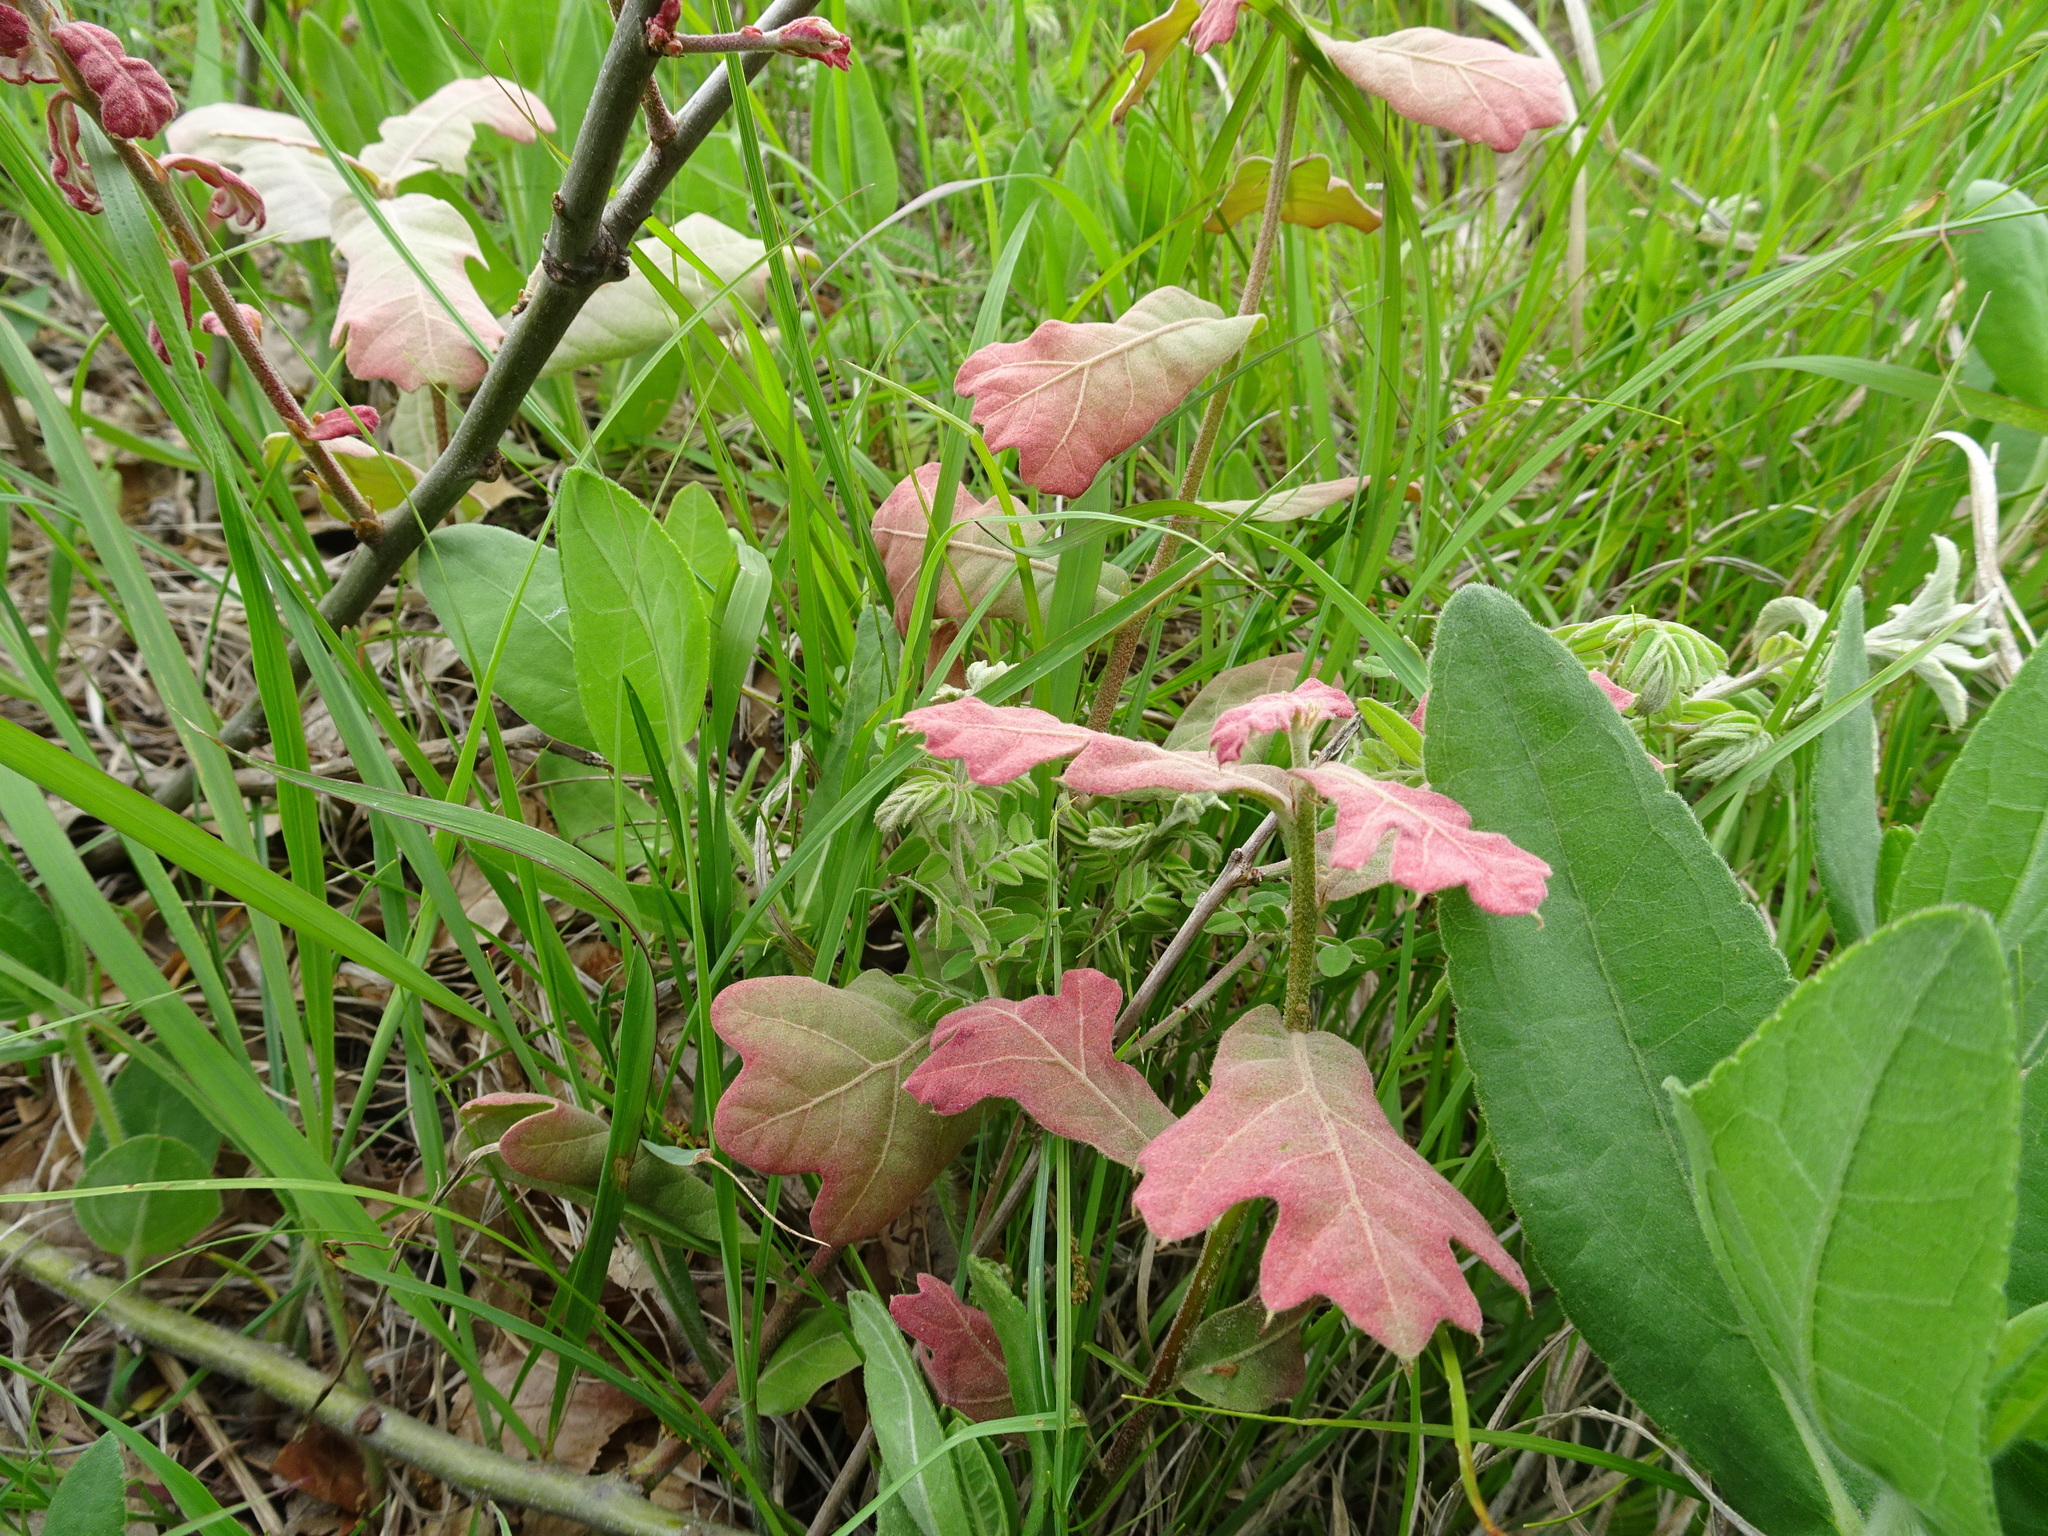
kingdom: Plantae
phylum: Tracheophyta
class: Magnoliopsida
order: Fagales
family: Fagaceae
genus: Quercus
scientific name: Quercus marilandica
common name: Blackjack oak
